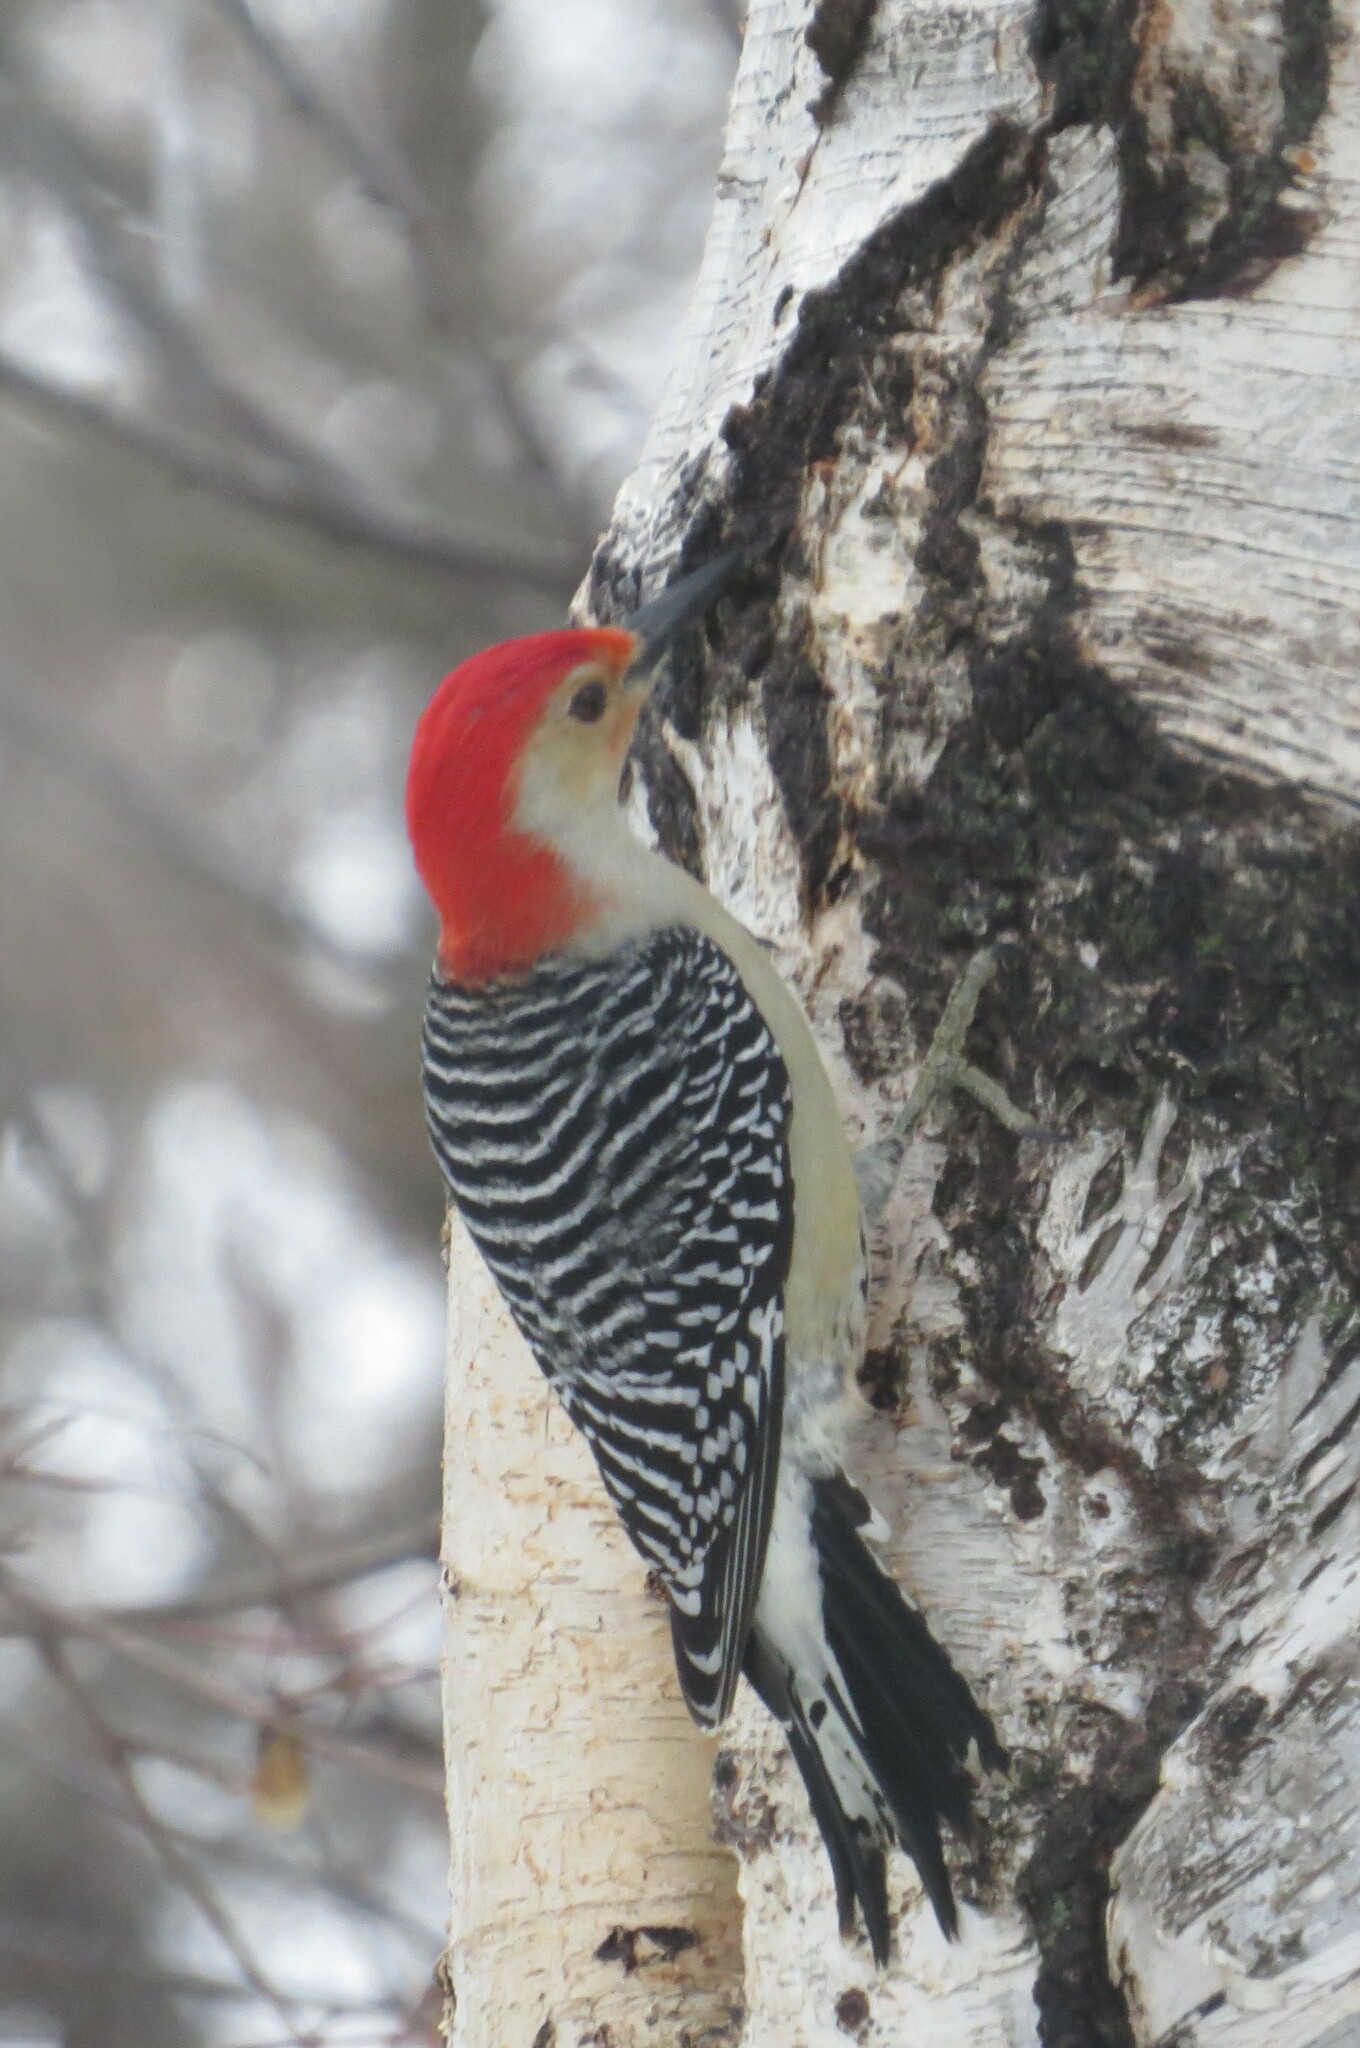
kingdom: Animalia
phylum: Chordata
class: Aves
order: Piciformes
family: Picidae
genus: Melanerpes
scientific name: Melanerpes carolinus
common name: Red-bellied woodpecker
